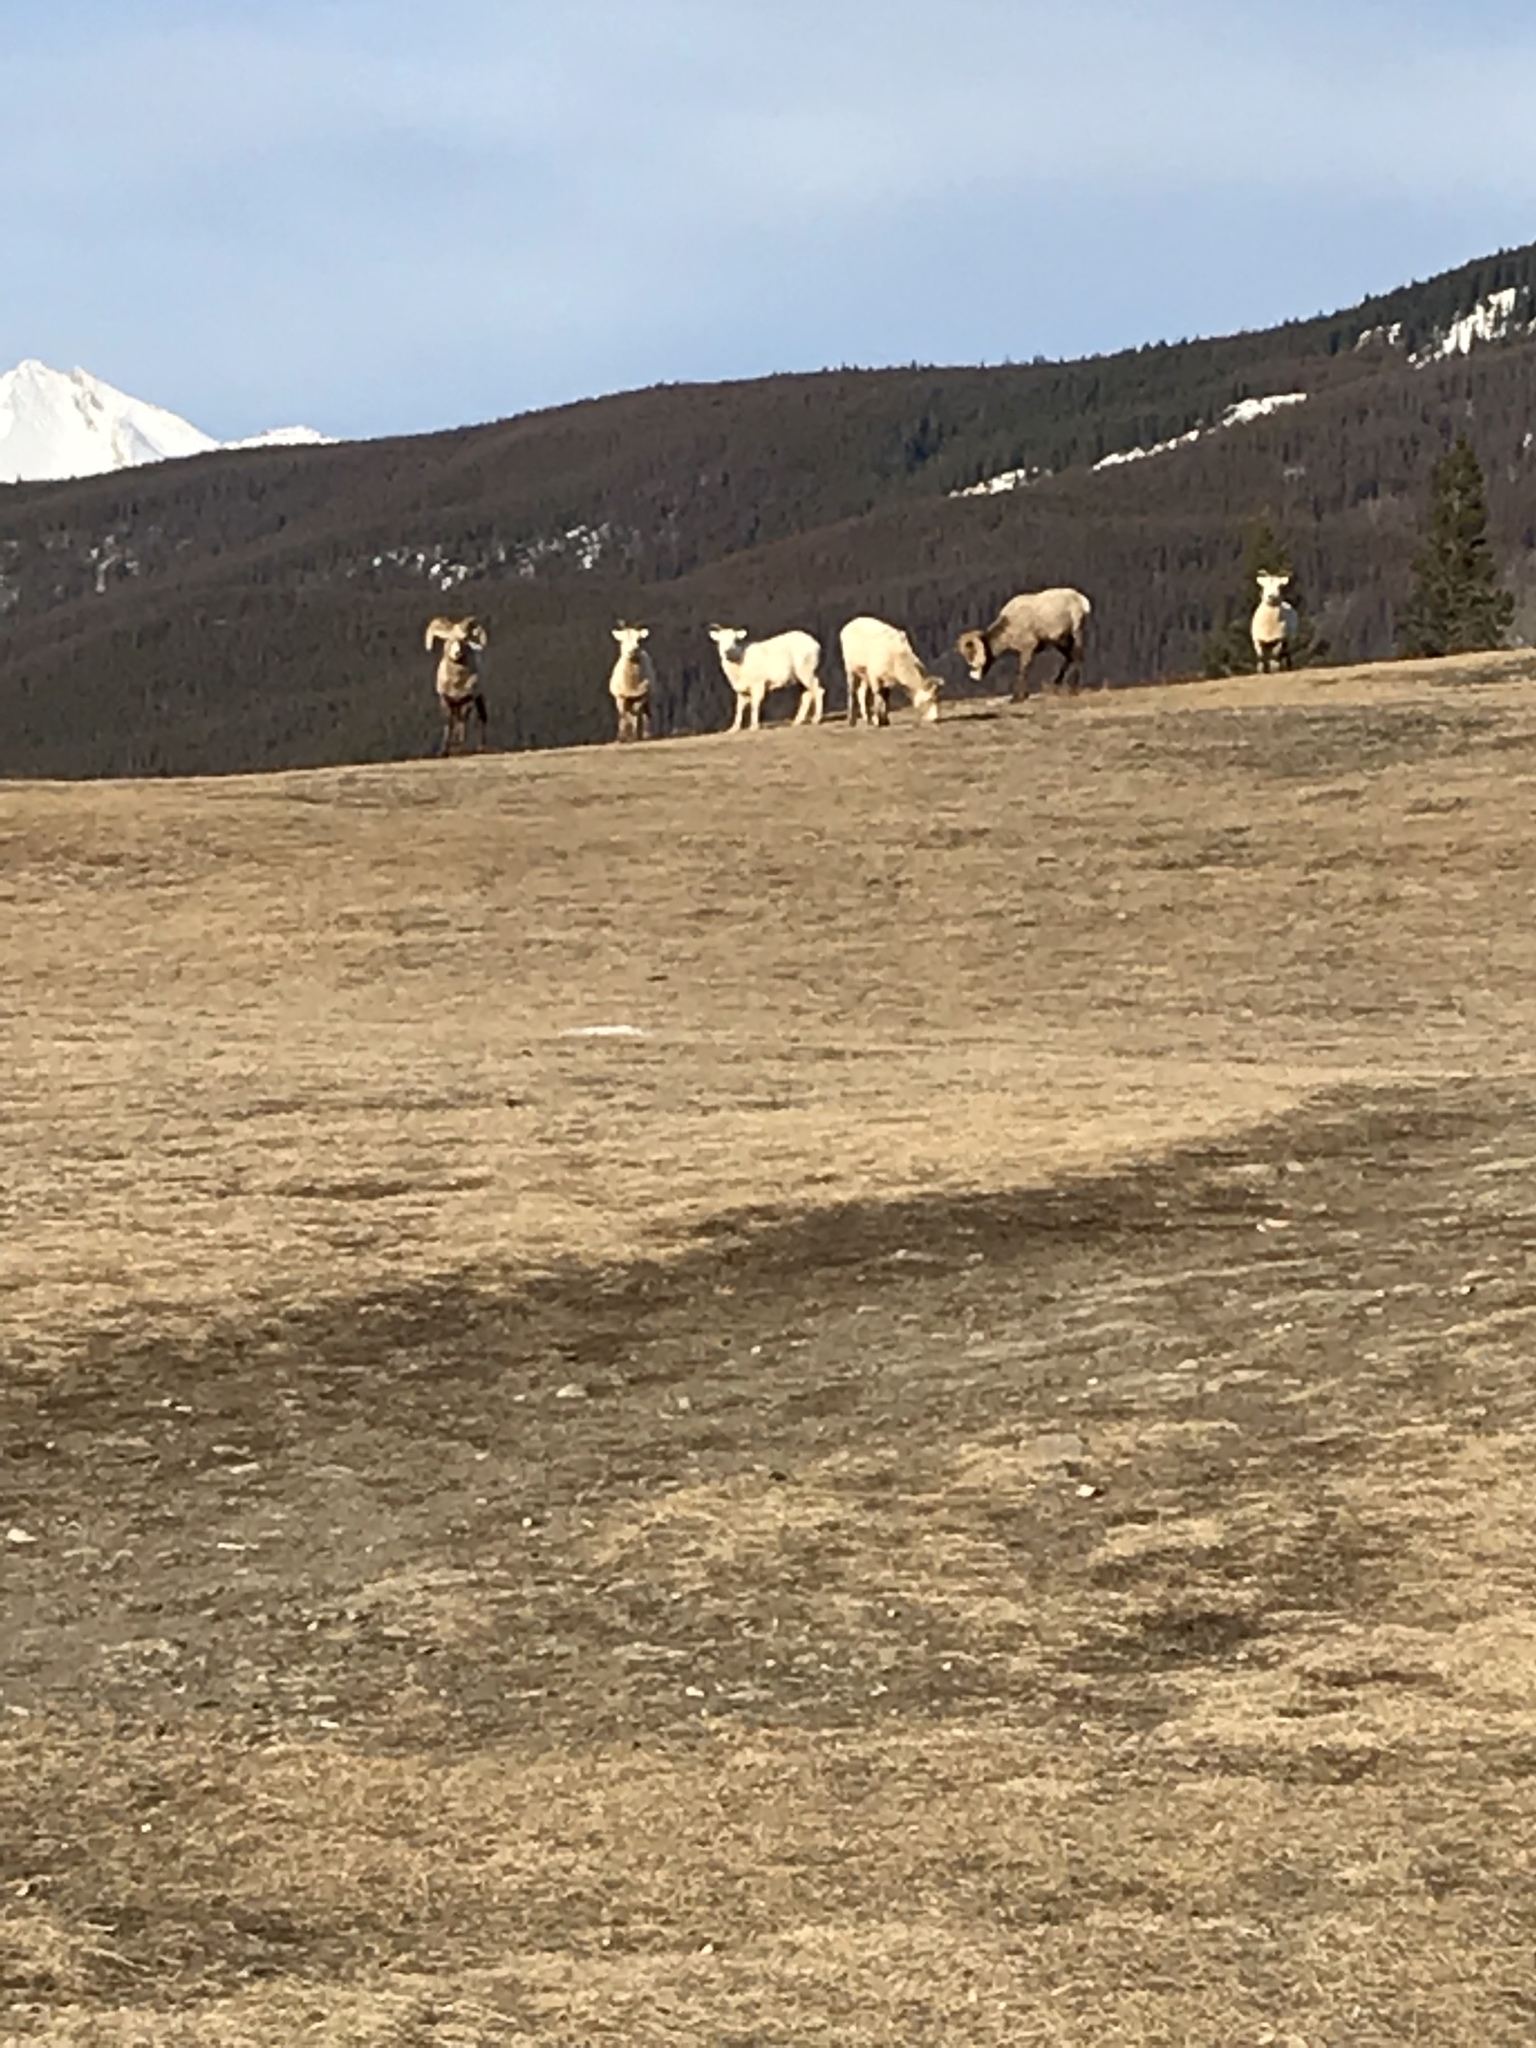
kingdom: Animalia
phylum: Chordata
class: Mammalia
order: Artiodactyla
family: Bovidae
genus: Ovis
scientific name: Ovis canadensis
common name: Bighorn sheep
